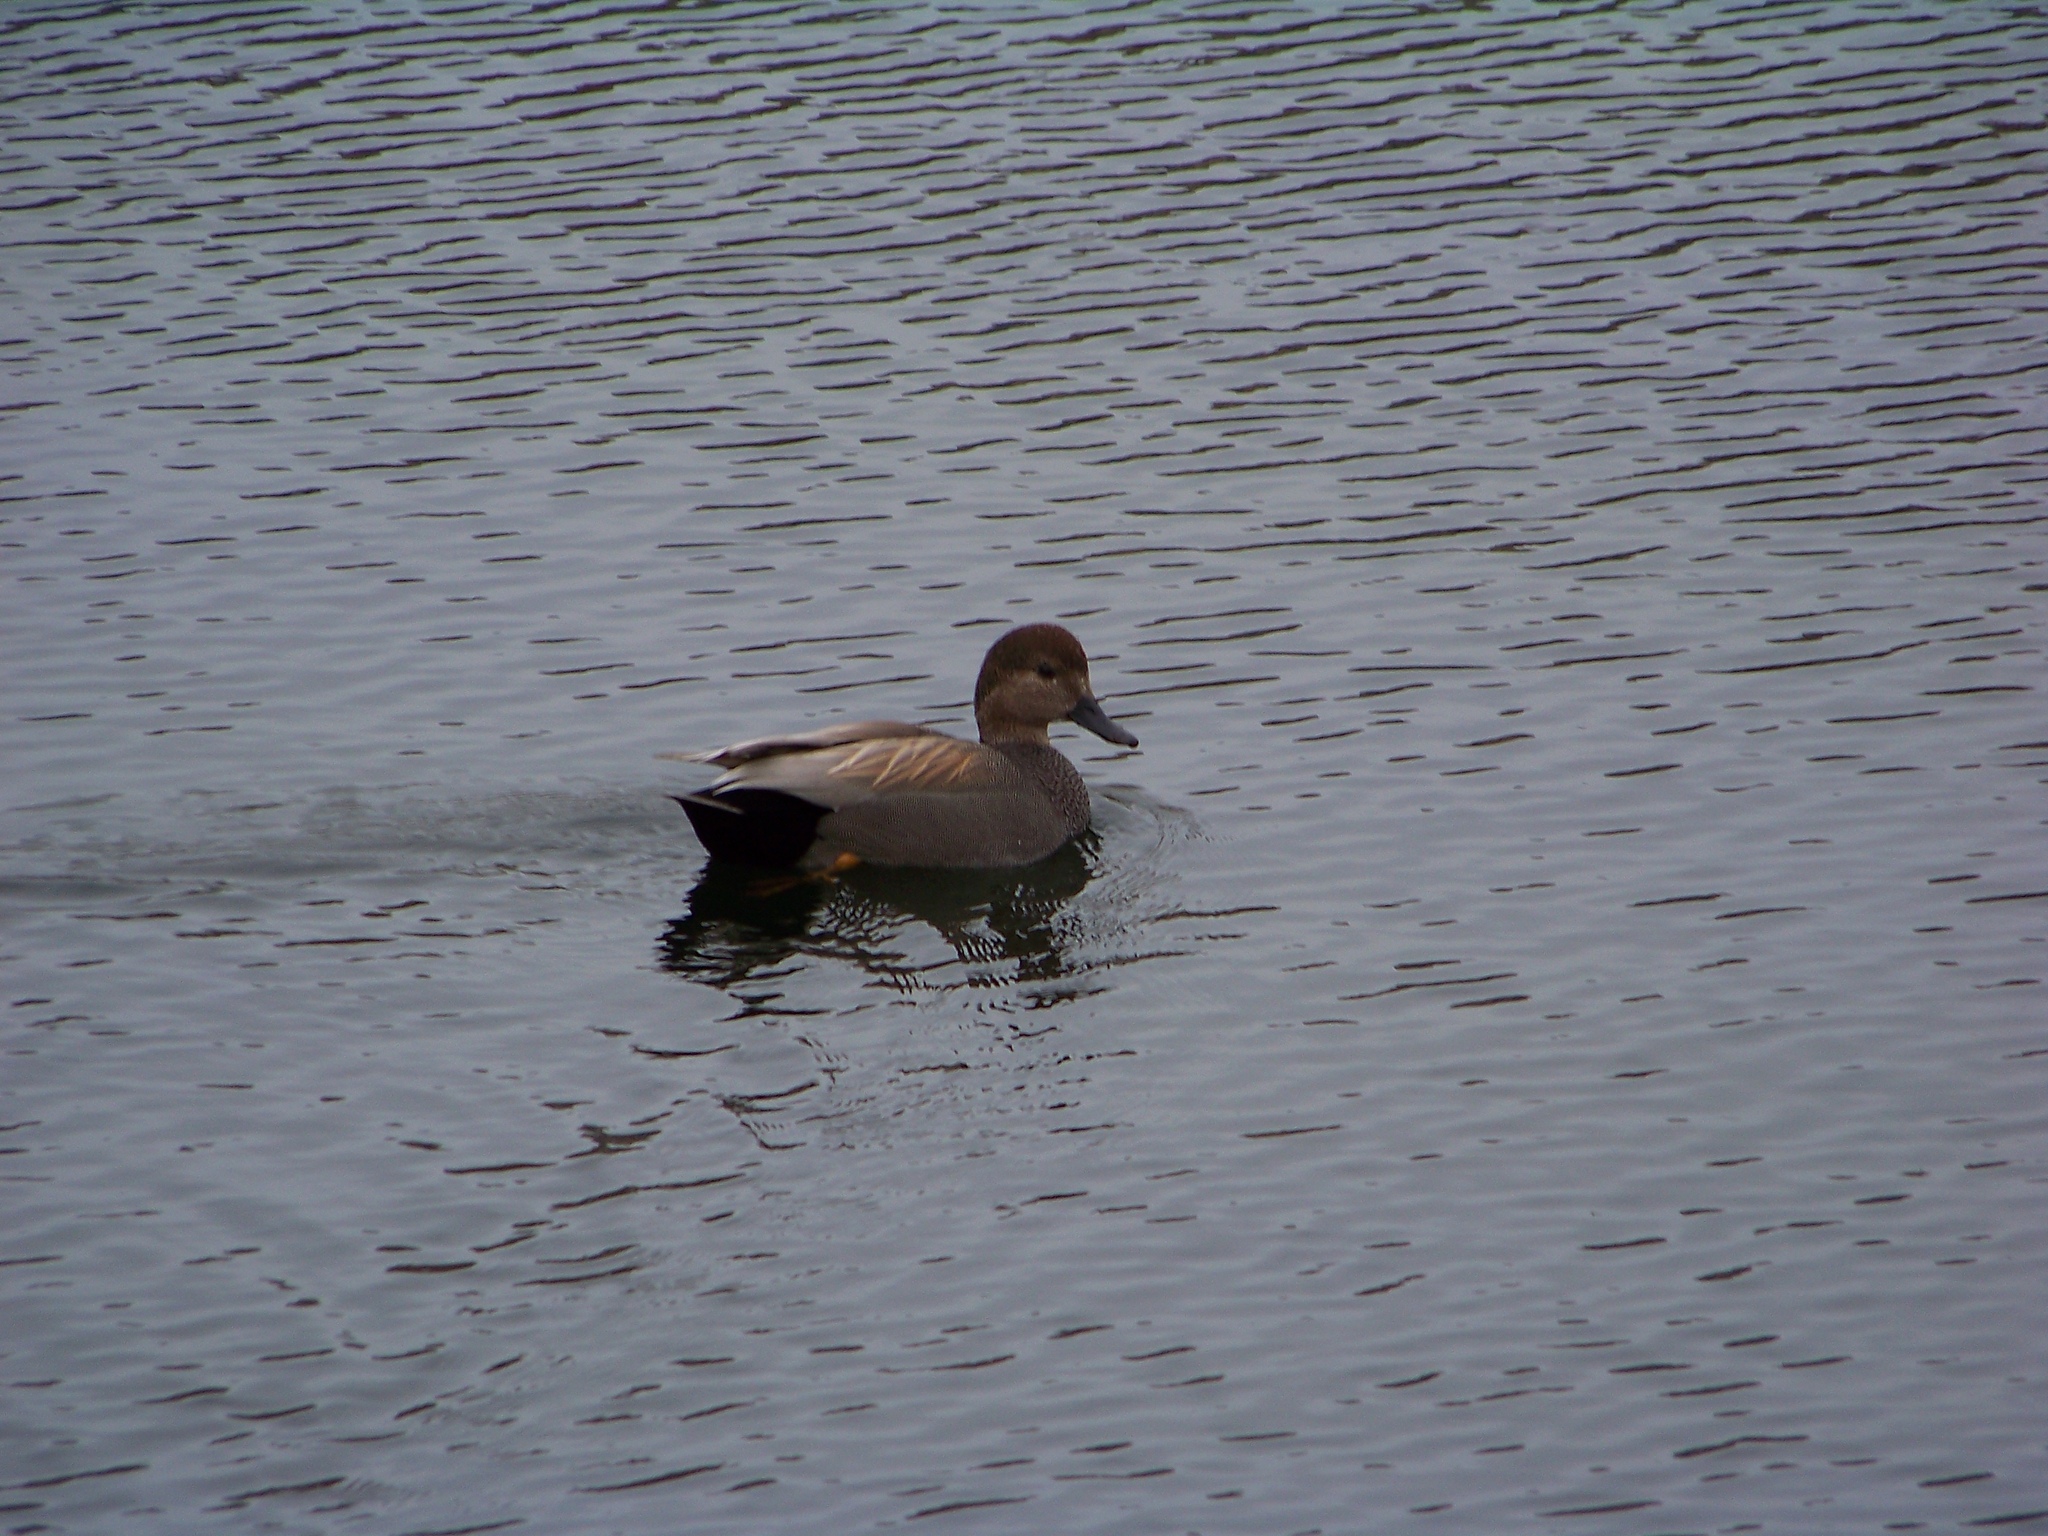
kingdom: Animalia
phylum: Chordata
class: Aves
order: Anseriformes
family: Anatidae
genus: Mareca
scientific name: Mareca strepera
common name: Gadwall
